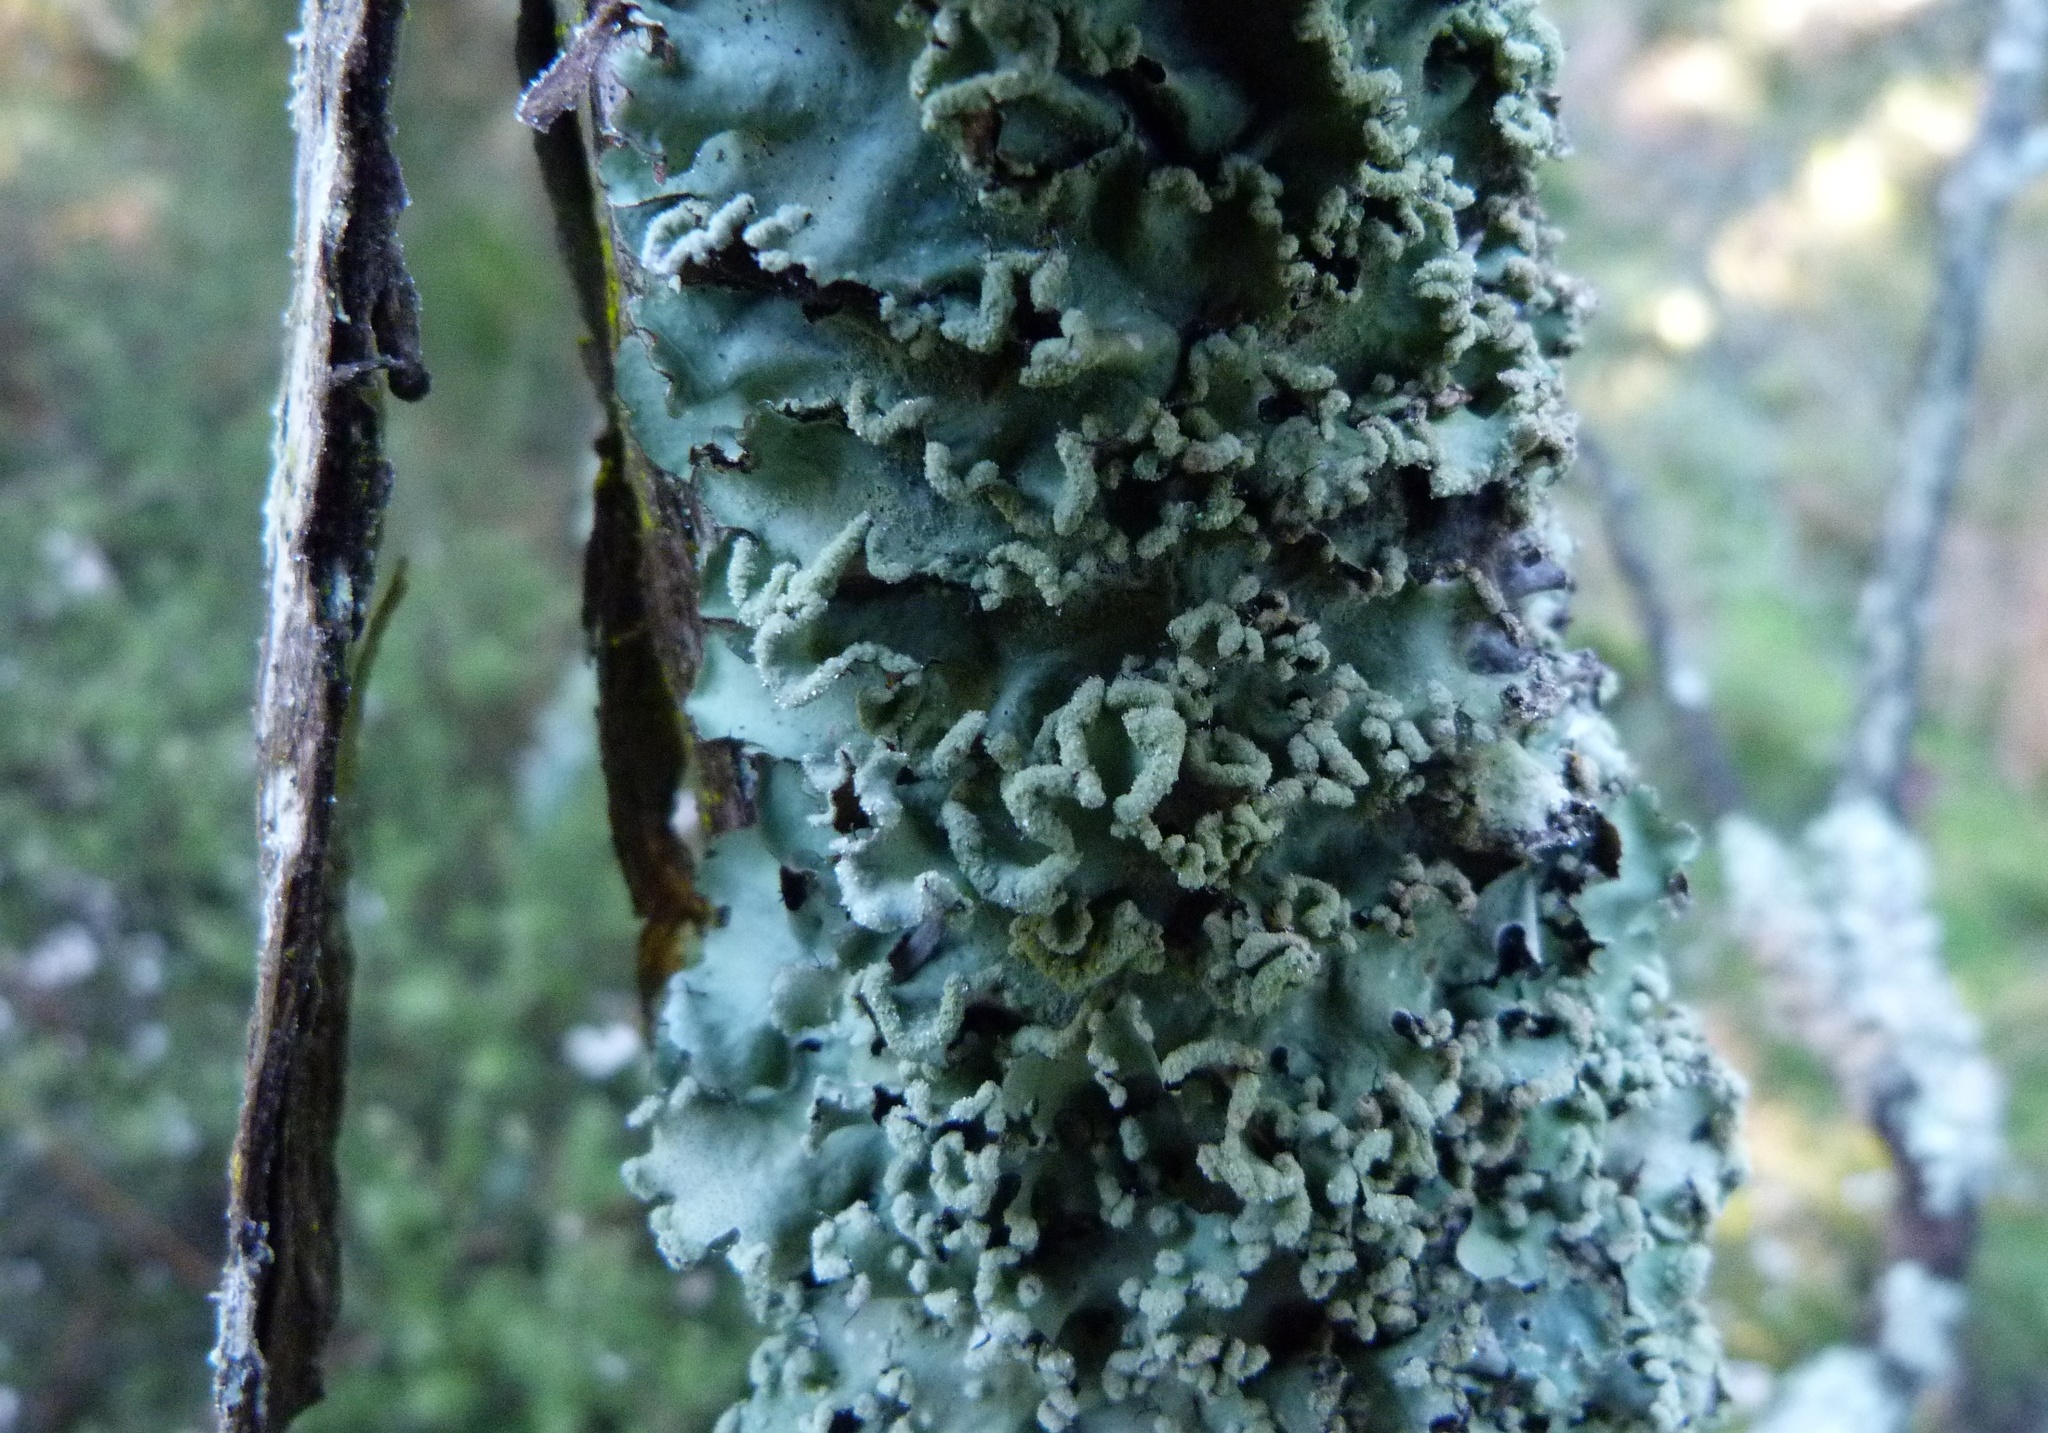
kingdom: Fungi
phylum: Ascomycota
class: Lecanoromycetes
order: Lecanorales
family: Parmeliaceae
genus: Parmotrema
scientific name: Parmotrema perlatum
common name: Black stone flower
